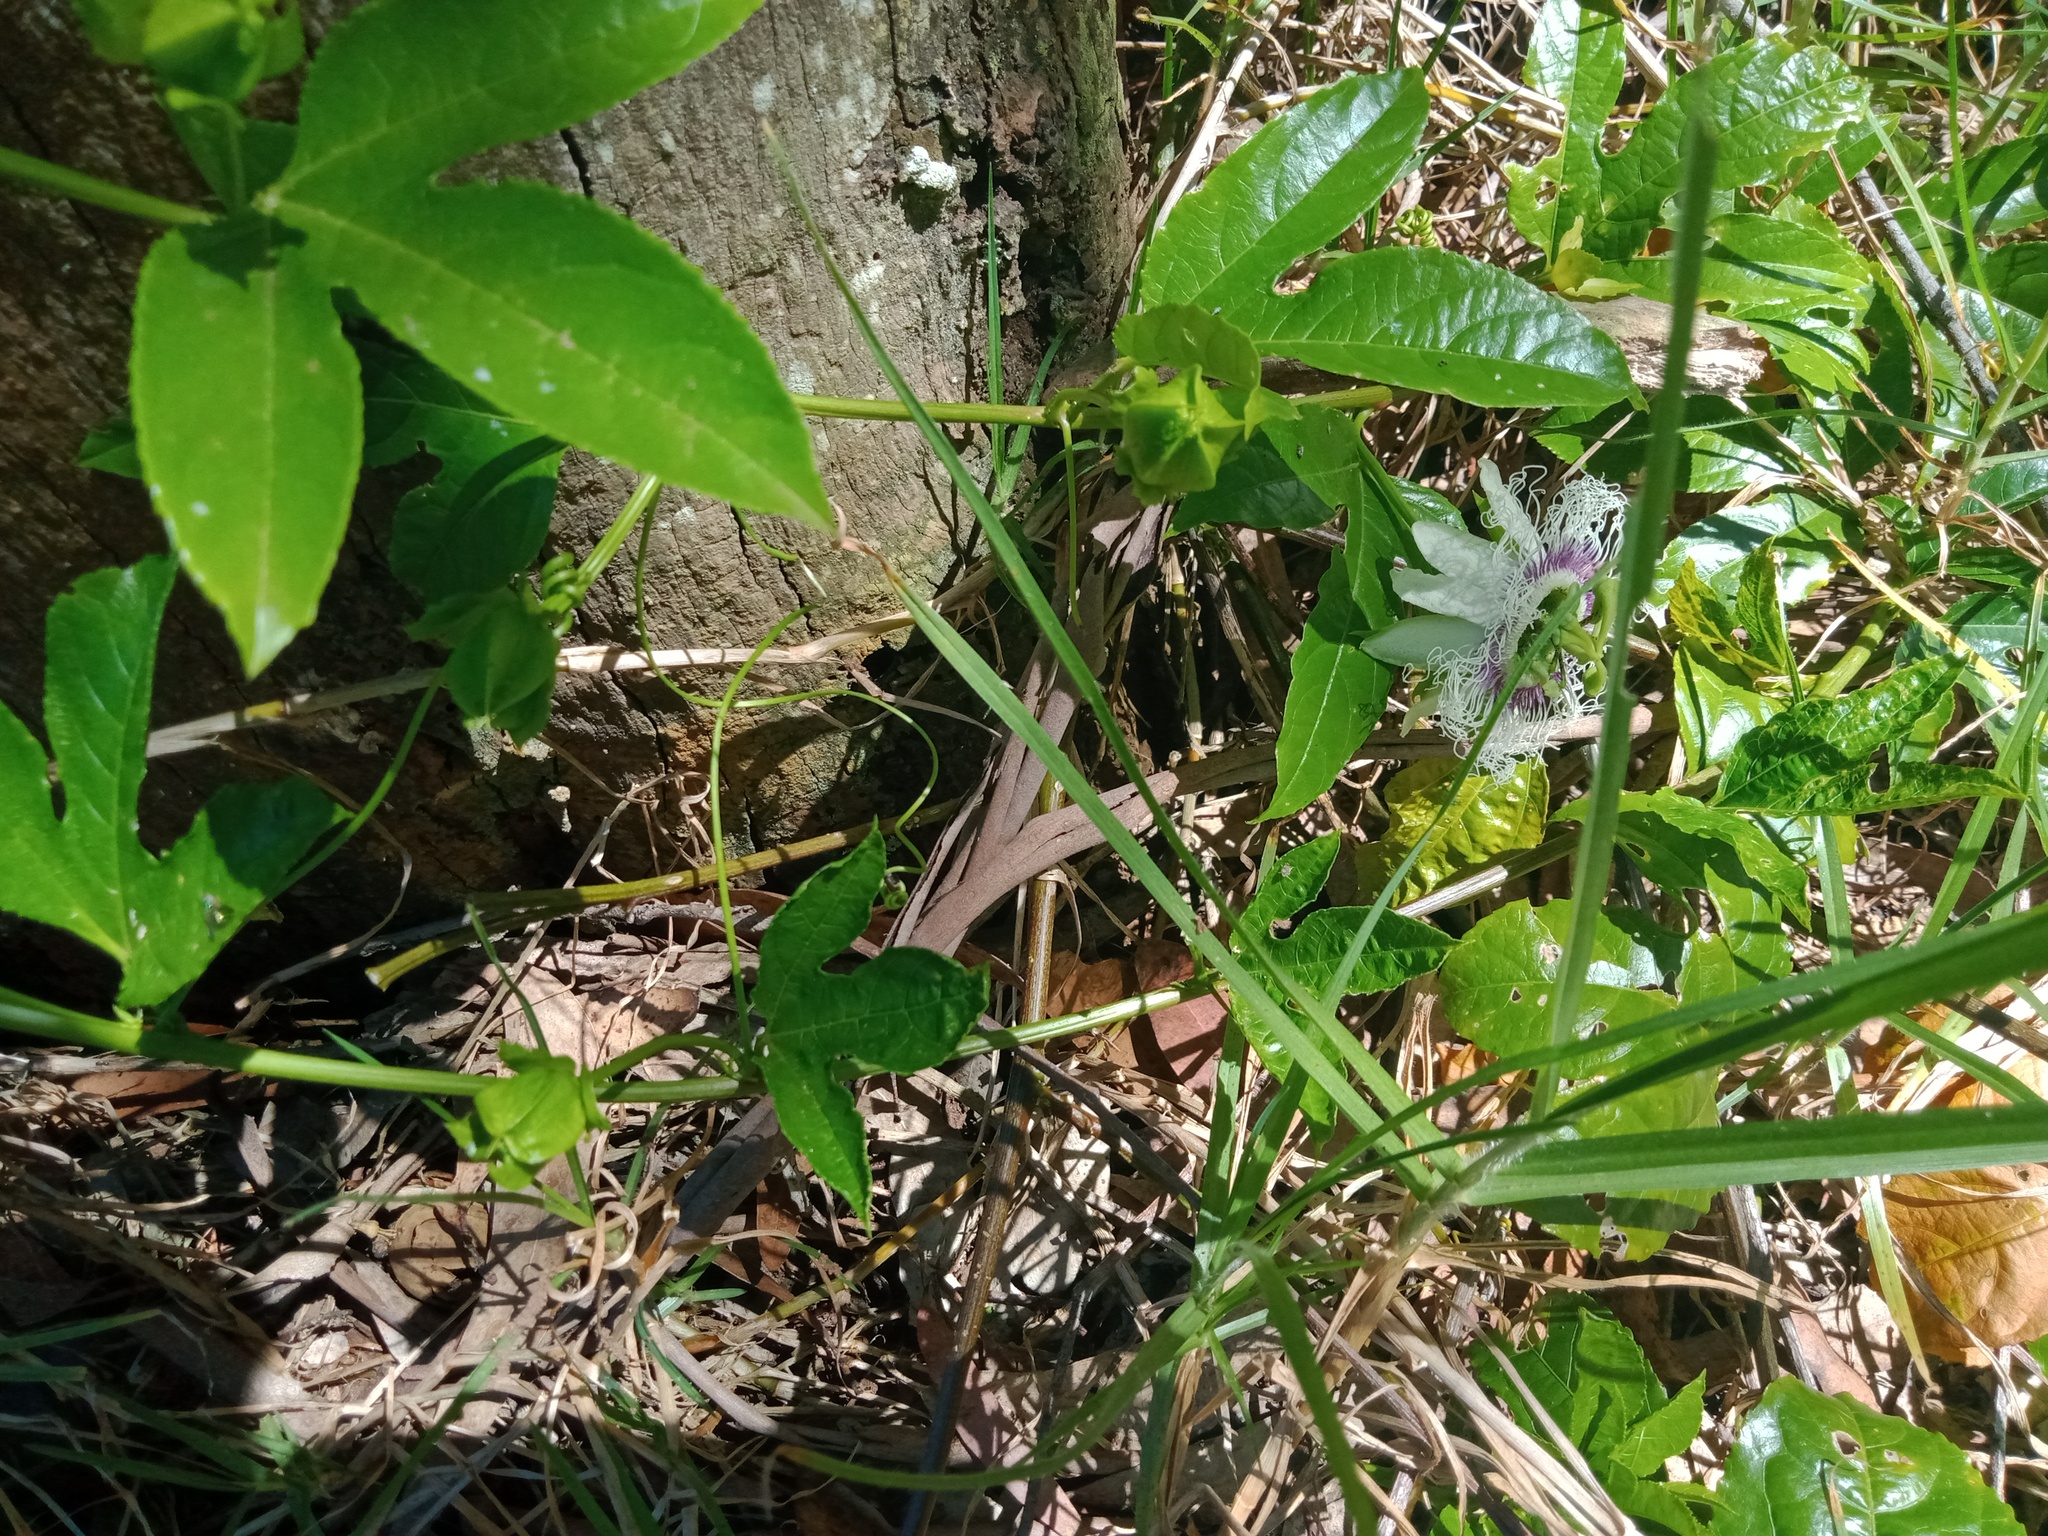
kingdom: Plantae
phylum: Tracheophyta
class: Magnoliopsida
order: Malpighiales
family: Passifloraceae
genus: Passiflora
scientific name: Passiflora edulis
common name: Purple granadilla
